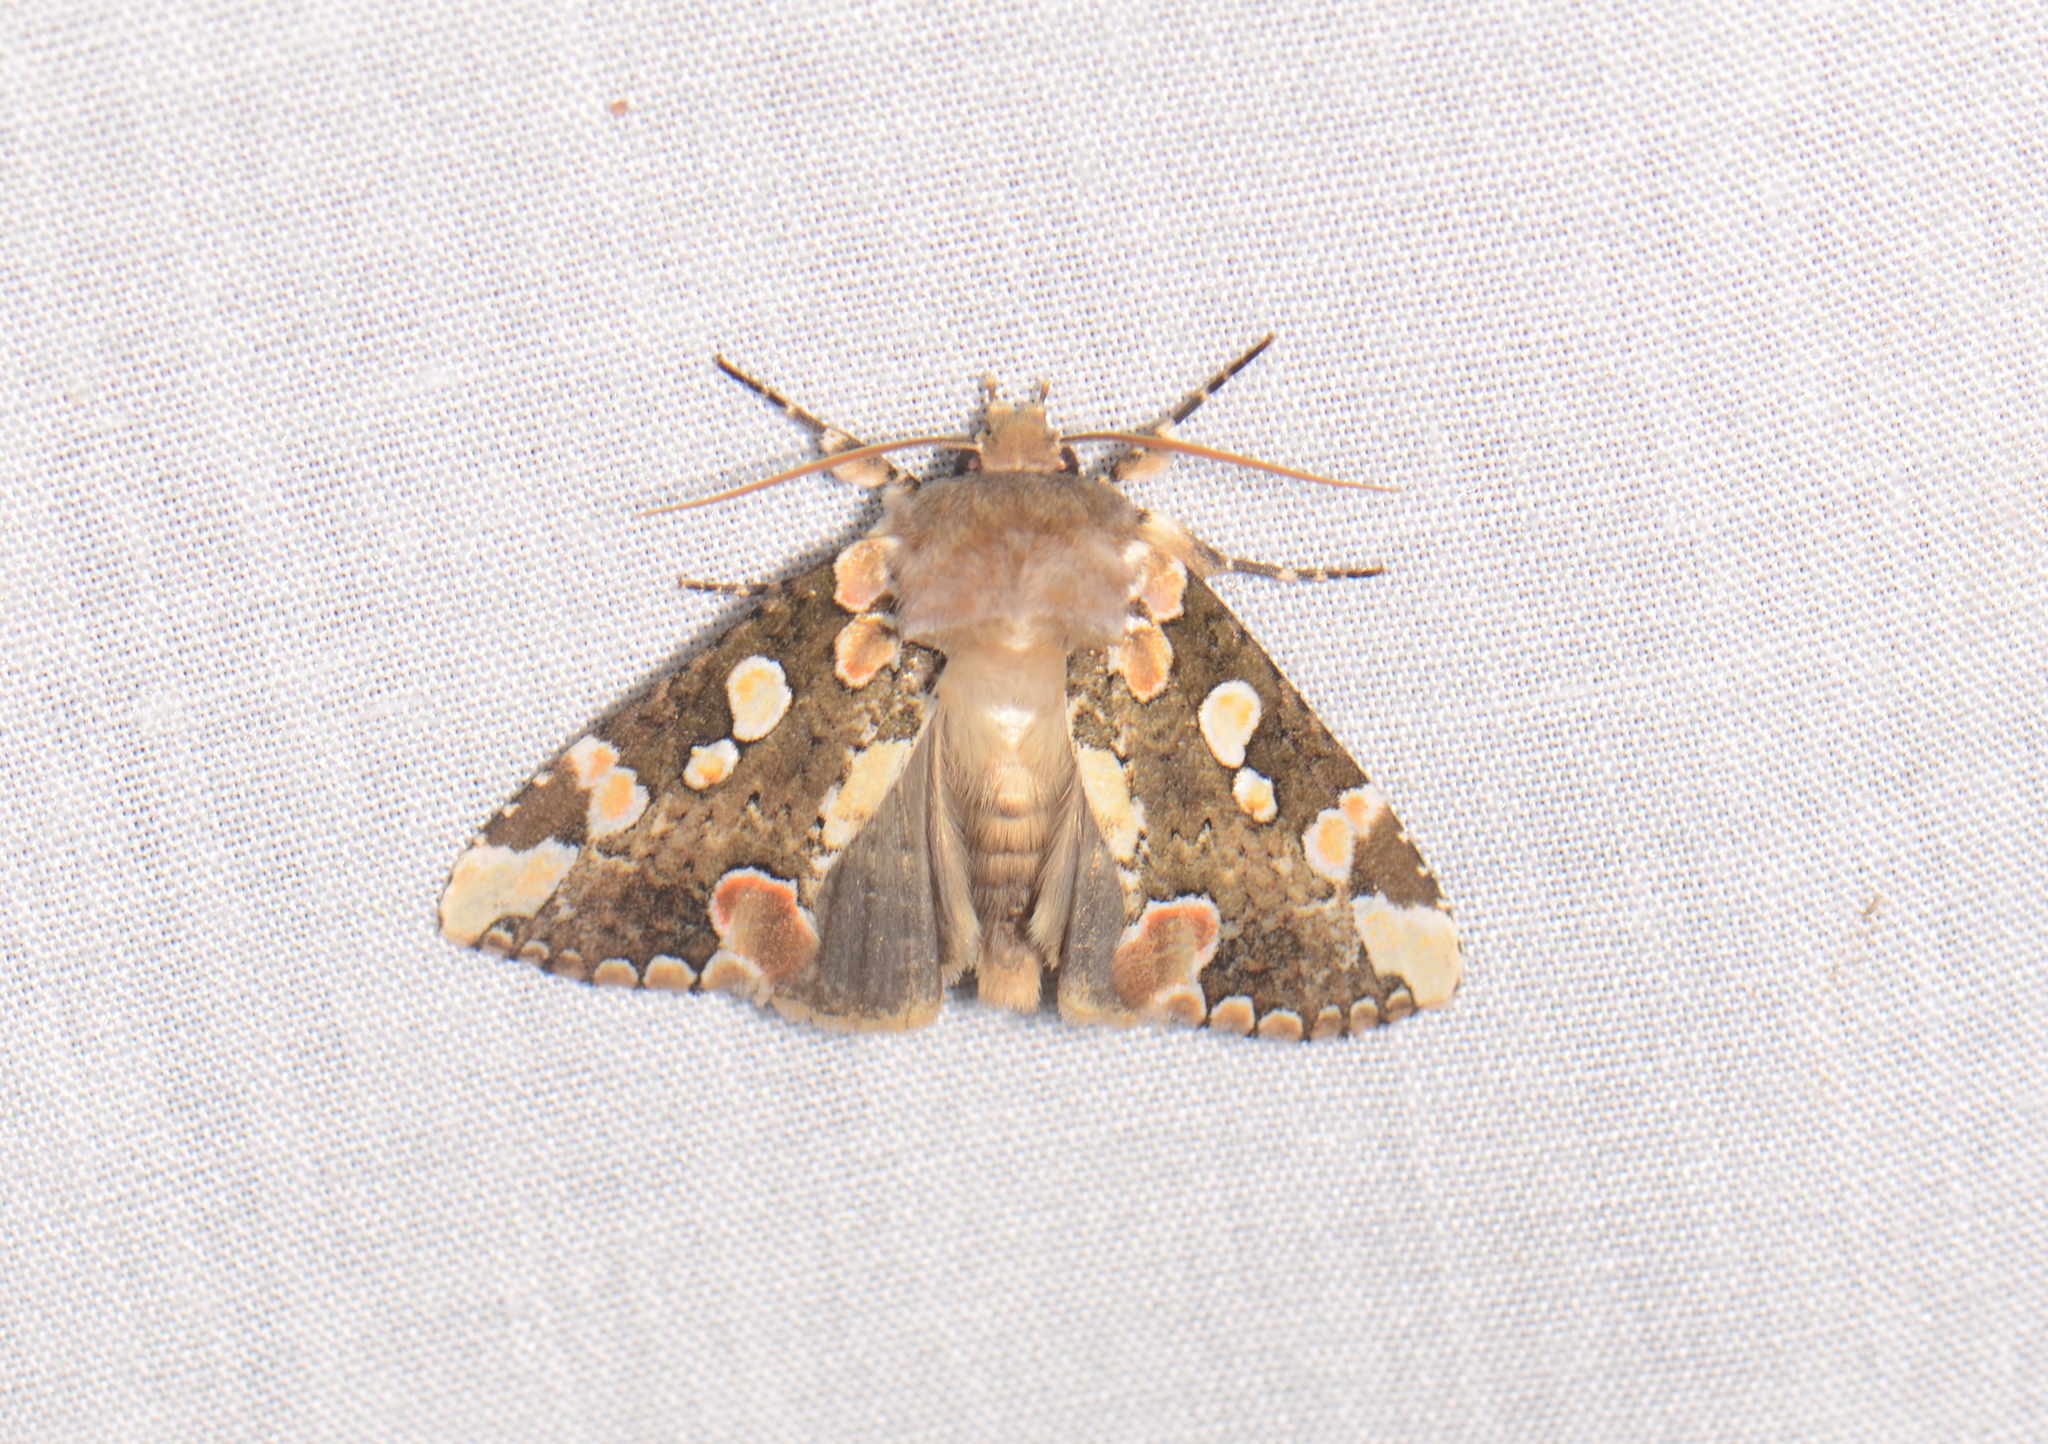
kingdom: Animalia
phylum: Arthropoda
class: Insecta
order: Lepidoptera
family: Drepanidae
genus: Horithyatira
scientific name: Horithyatira decorata
